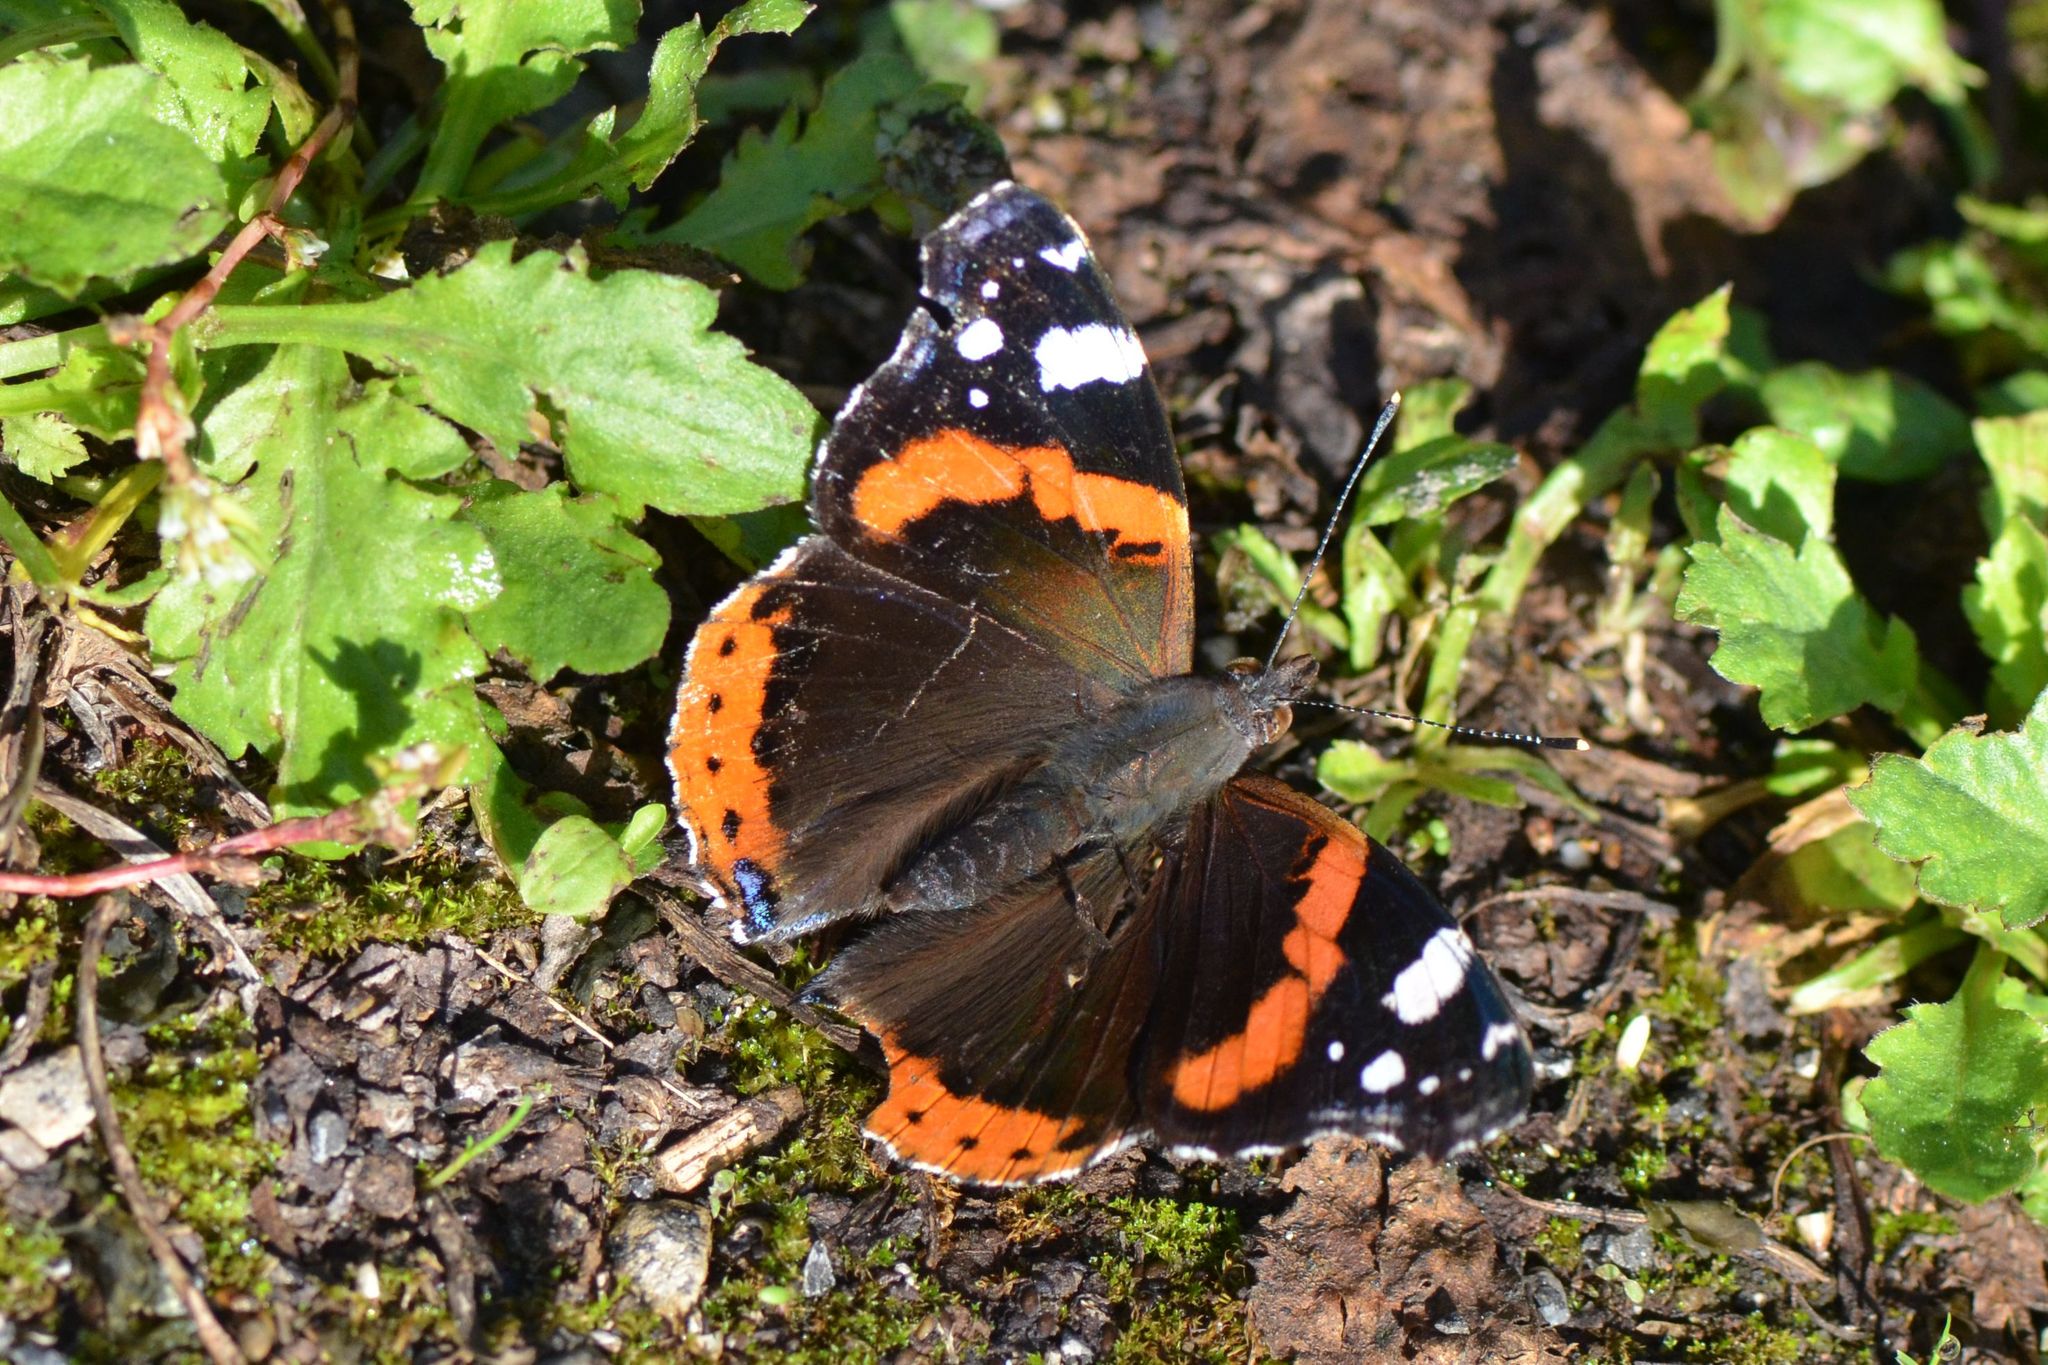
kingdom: Animalia
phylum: Arthropoda
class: Insecta
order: Lepidoptera
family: Nymphalidae
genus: Vanessa
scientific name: Vanessa atalanta
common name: Red admiral
